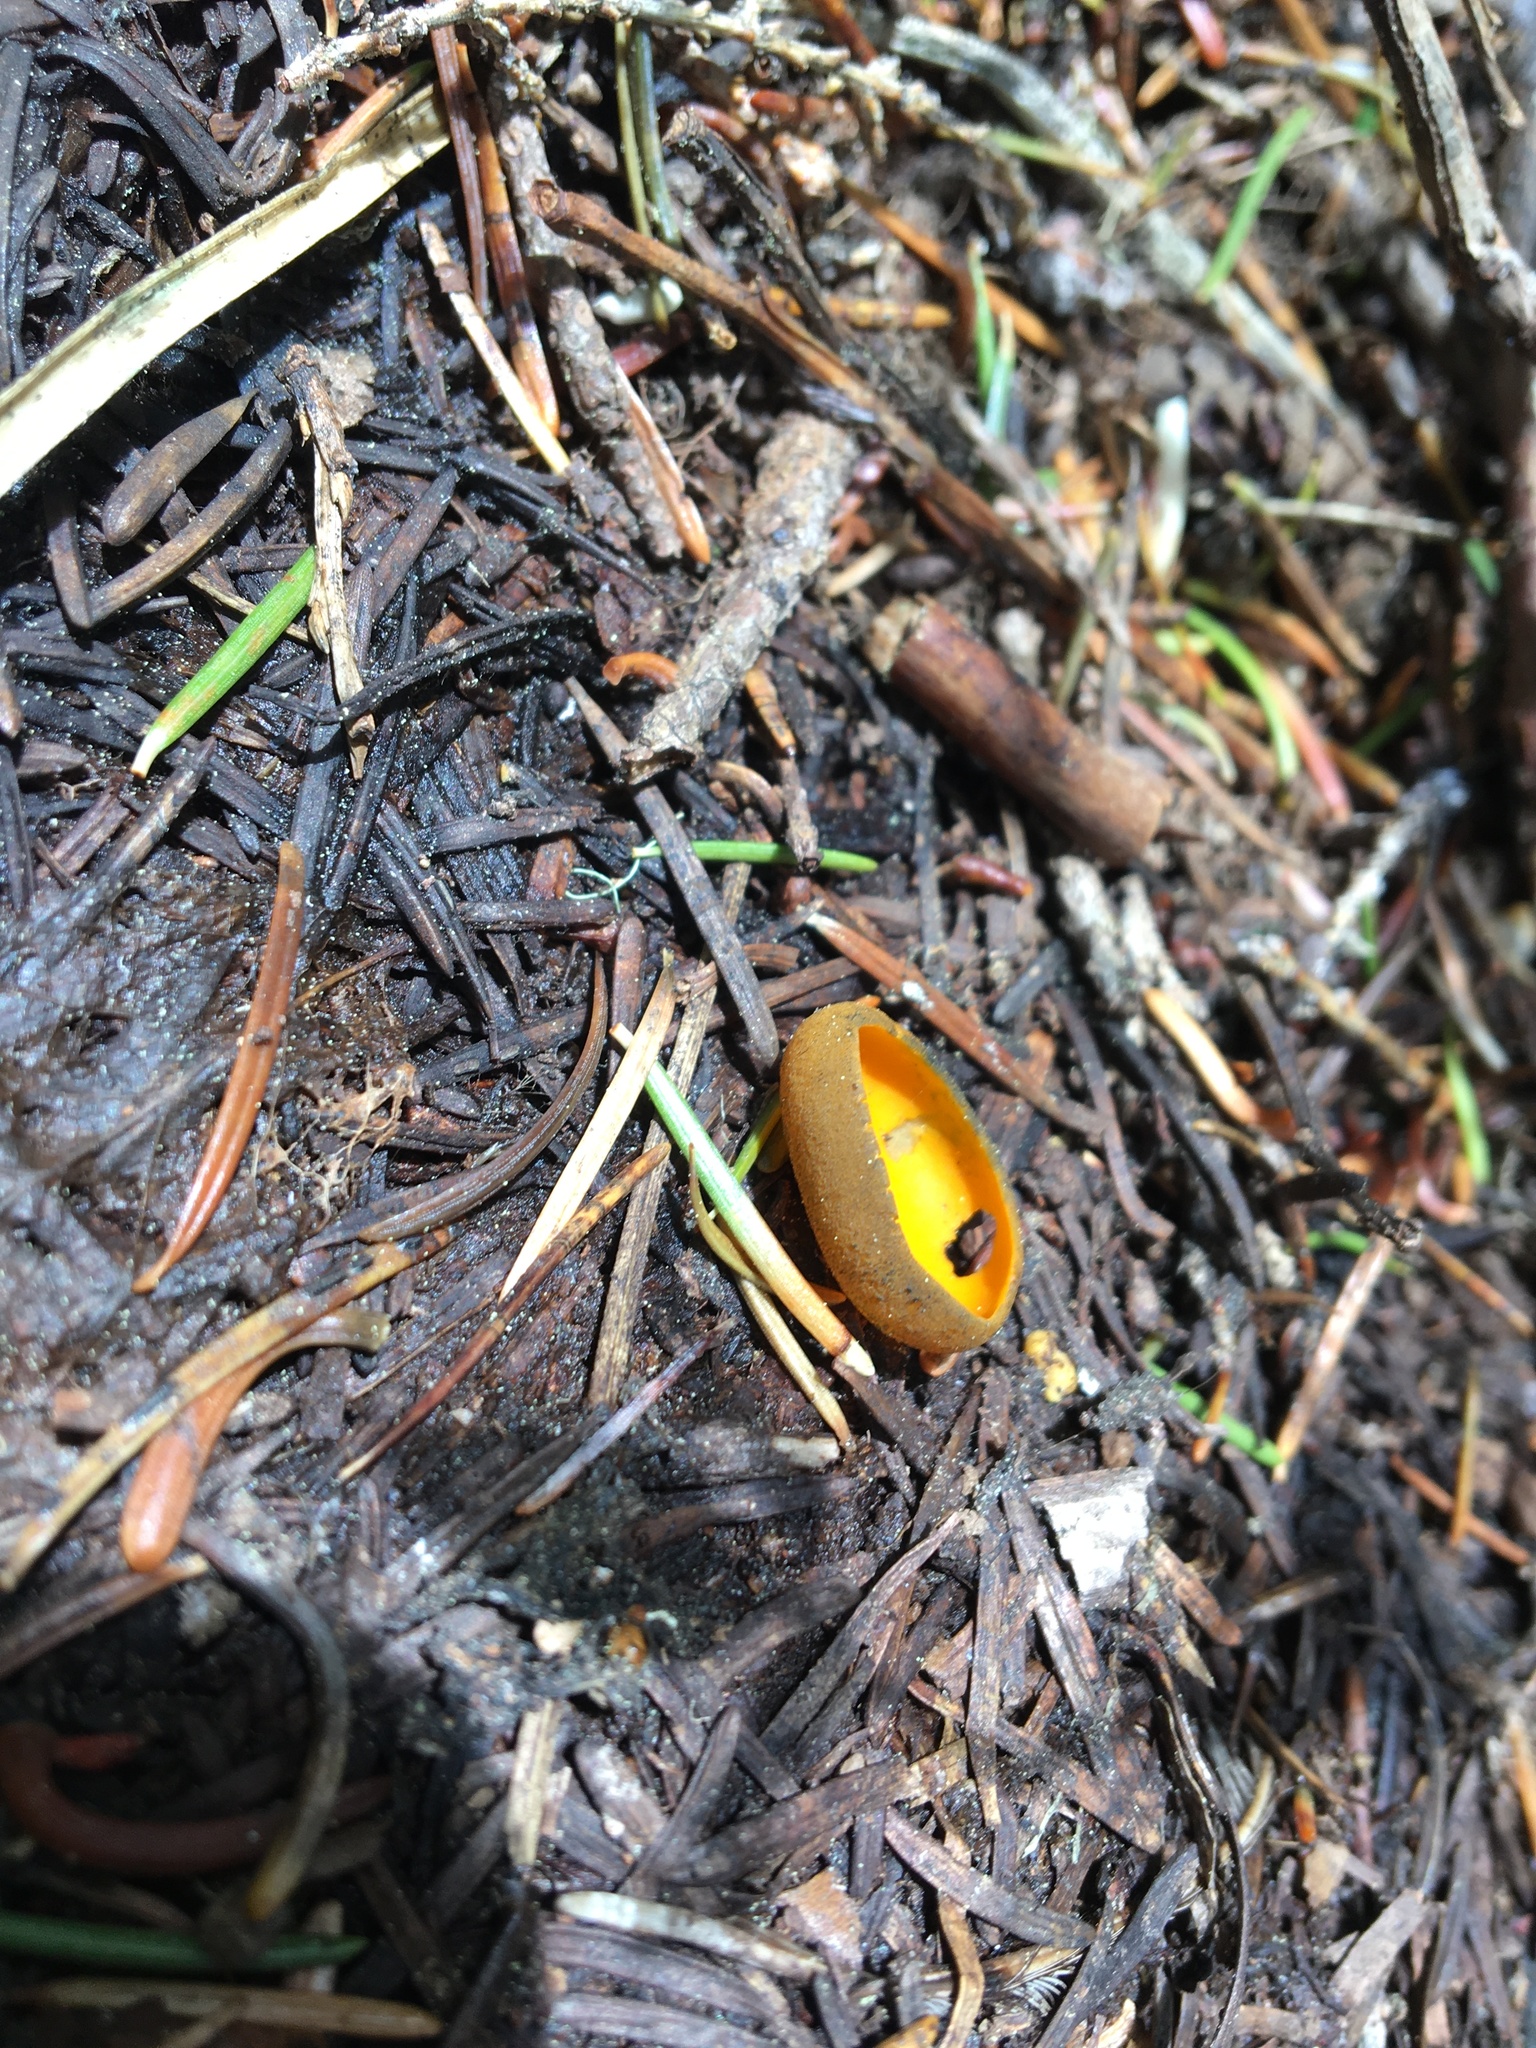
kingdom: Fungi
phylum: Ascomycota
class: Pezizomycetes
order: Pezizales
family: Caloscyphaceae
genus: Caloscypha
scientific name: Caloscypha fulgens
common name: Golden cup
